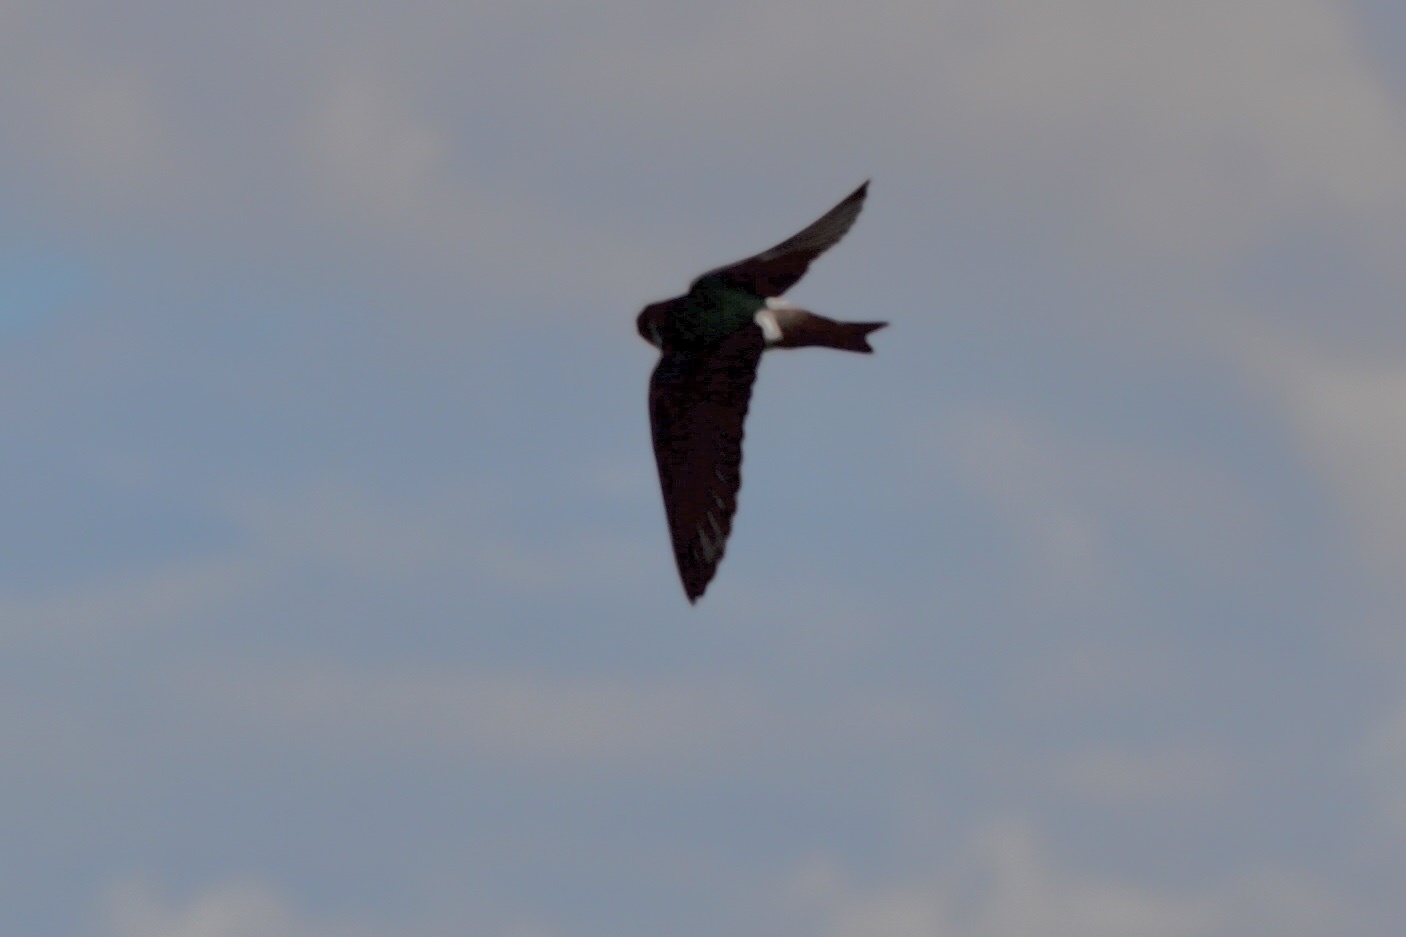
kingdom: Animalia
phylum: Chordata
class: Aves
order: Passeriformes
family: Hirundinidae
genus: Tachycineta
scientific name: Tachycineta thalassina
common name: Violet-green swallow
